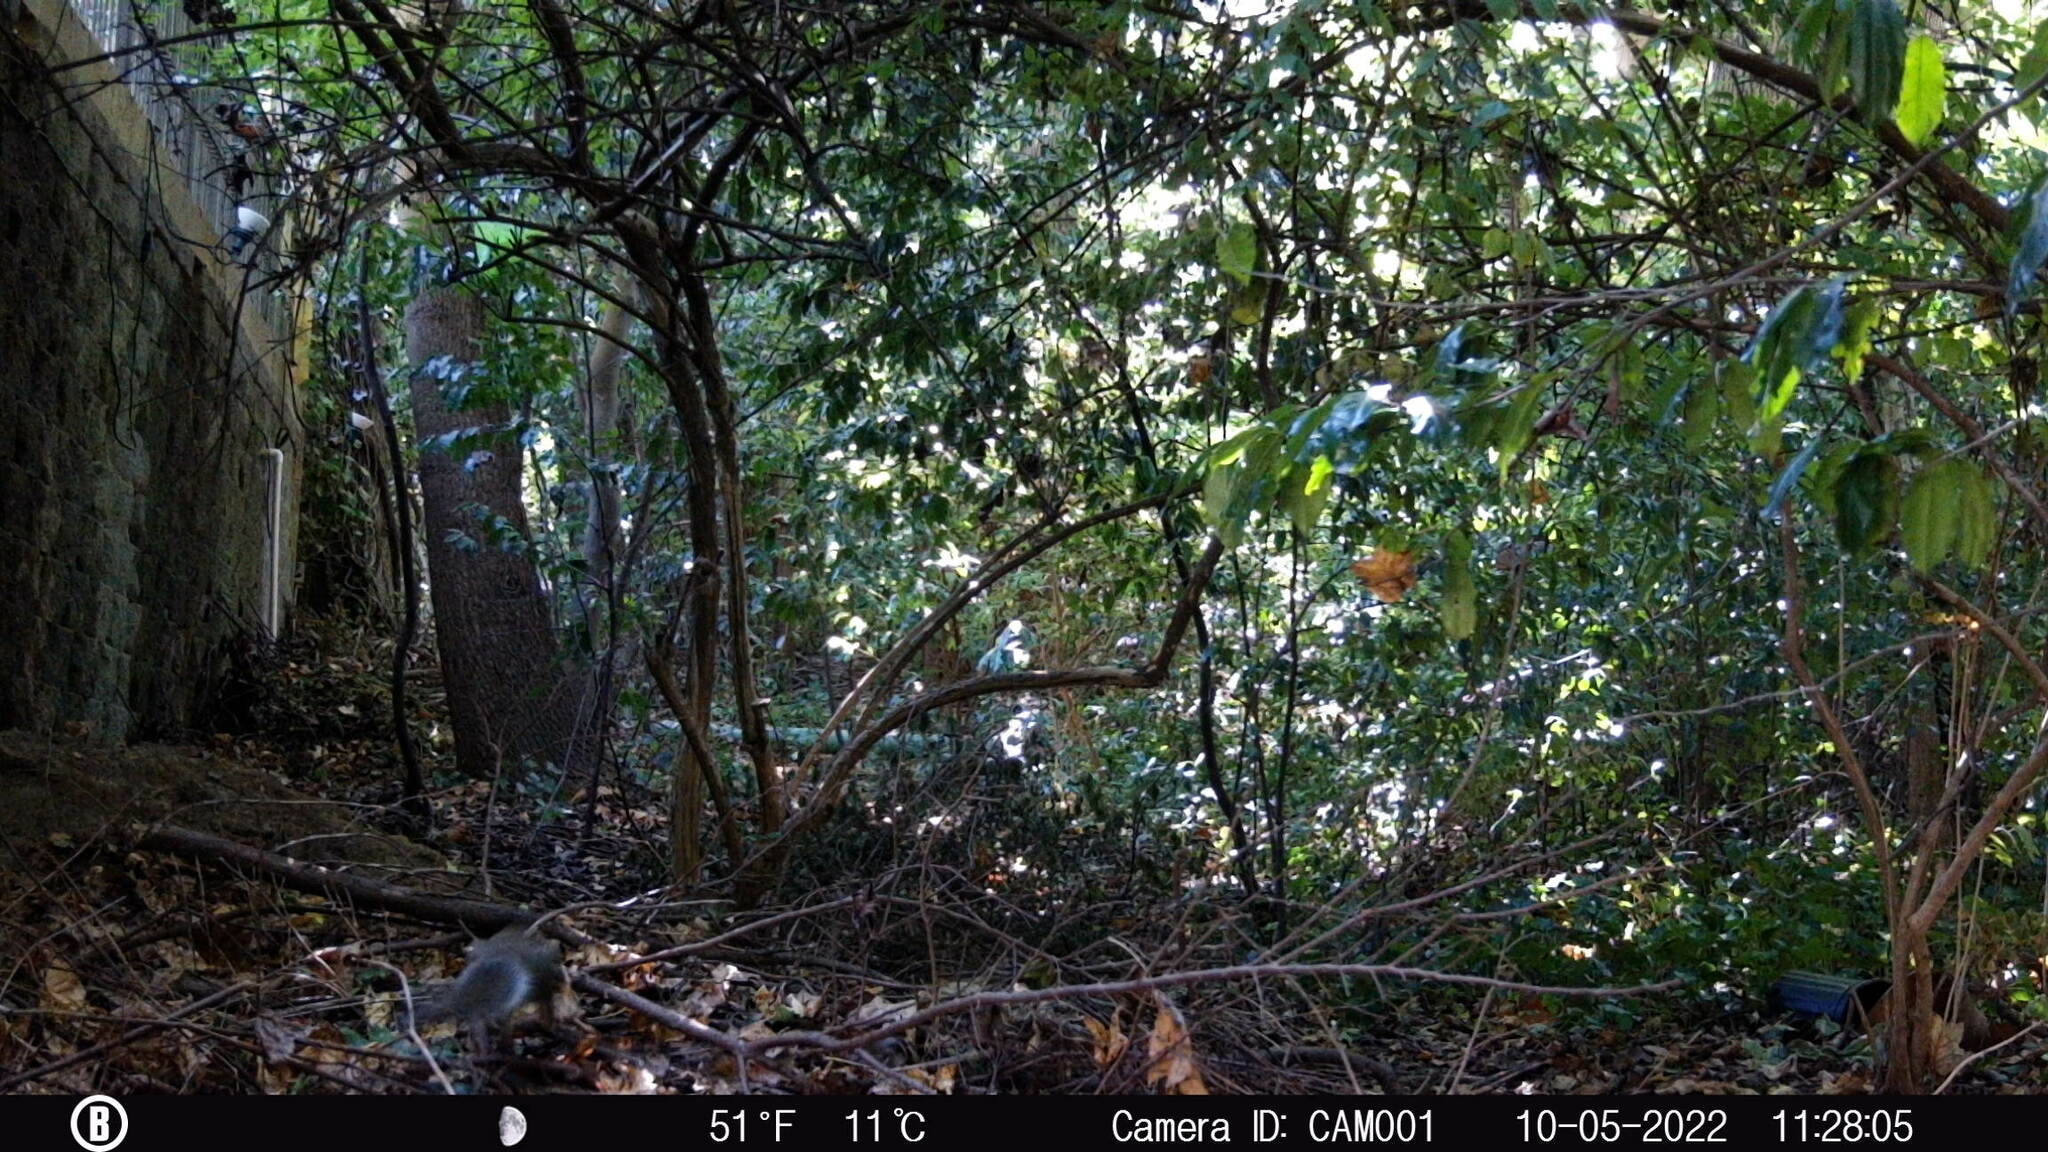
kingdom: Animalia
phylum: Chordata
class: Mammalia
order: Rodentia
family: Sciuridae
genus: Sciurus
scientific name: Sciurus carolinensis
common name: Eastern gray squirrel
